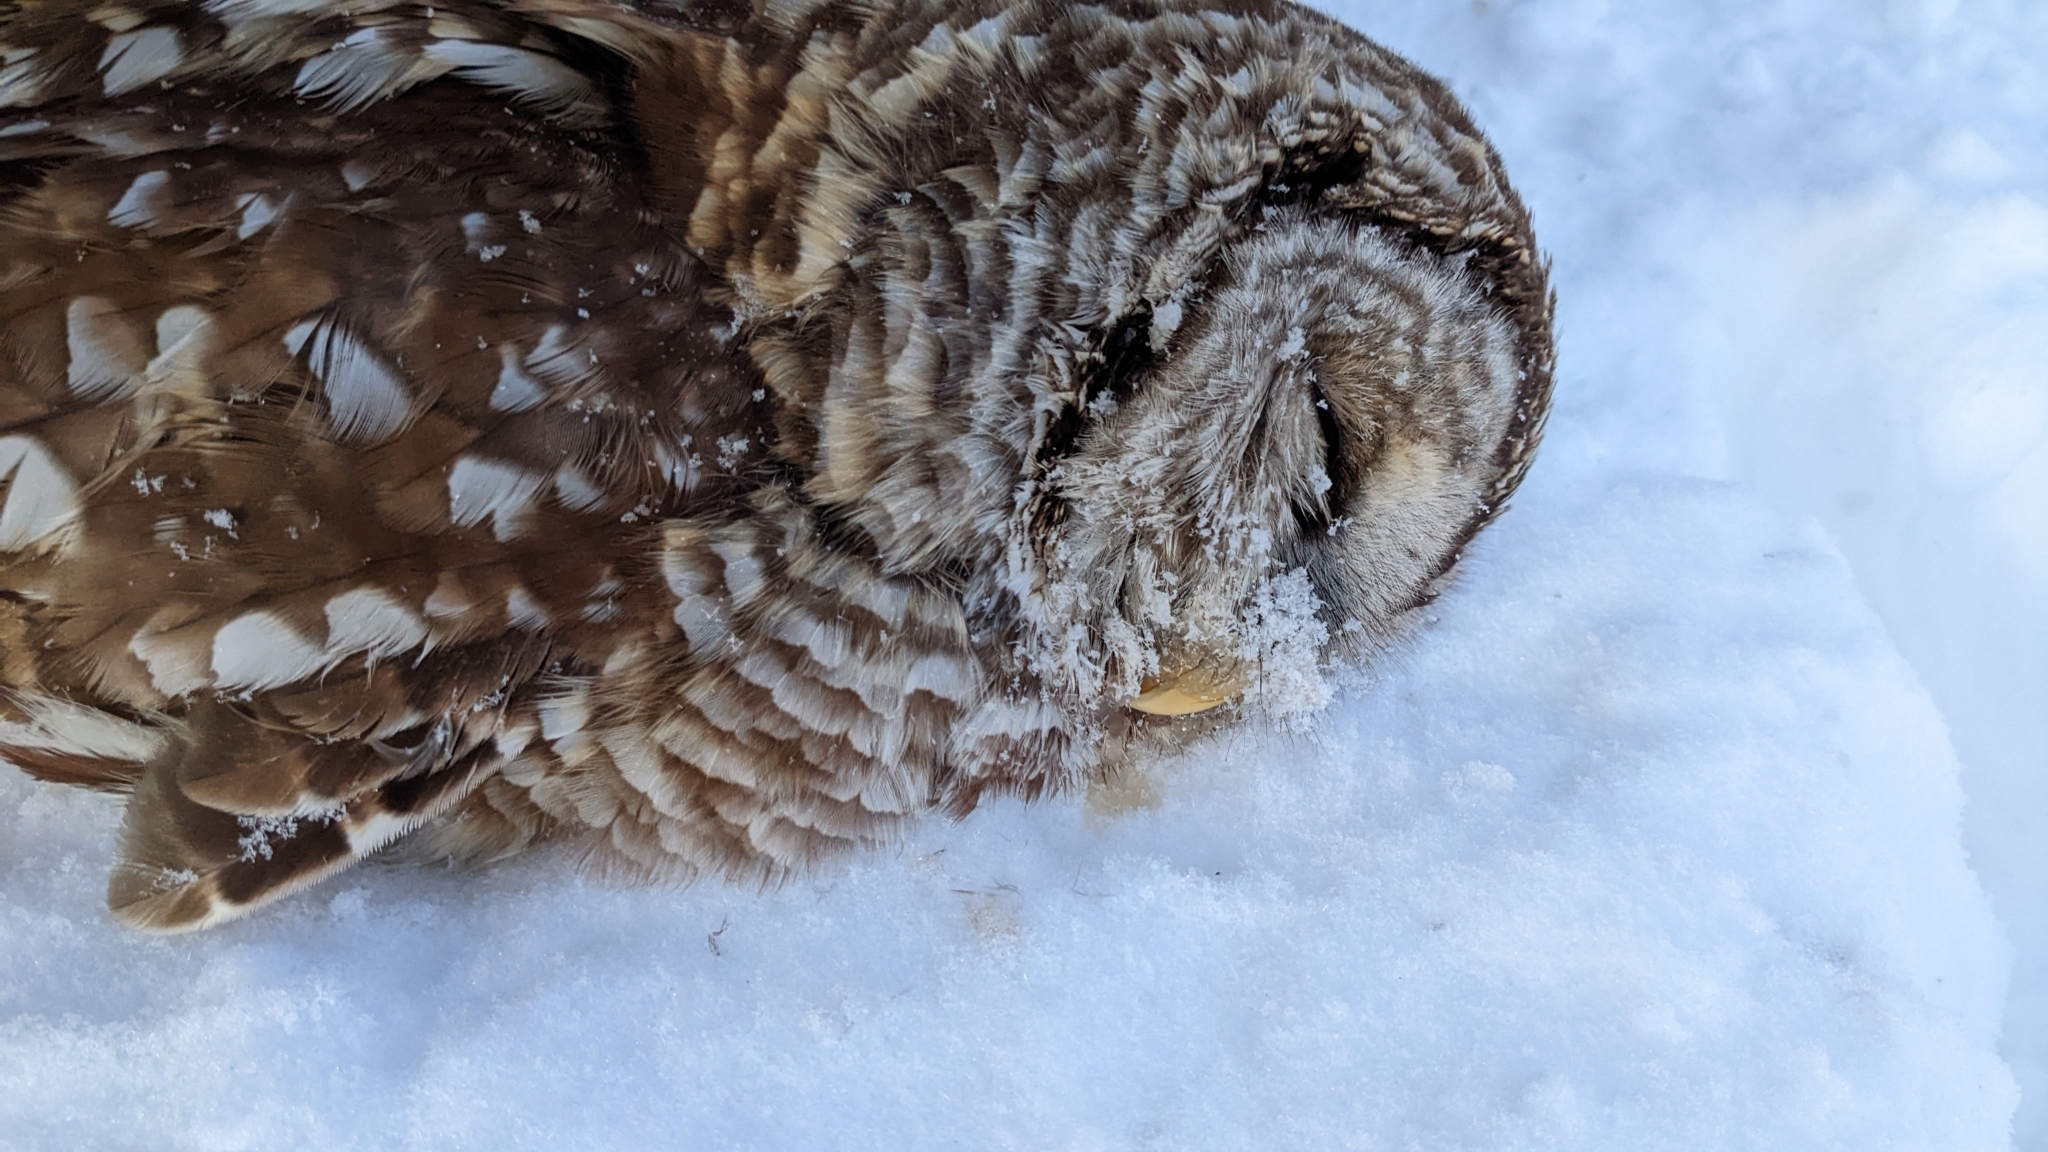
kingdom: Animalia
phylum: Chordata
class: Aves
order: Strigiformes
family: Strigidae
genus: Strix
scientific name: Strix varia
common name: Barred owl
